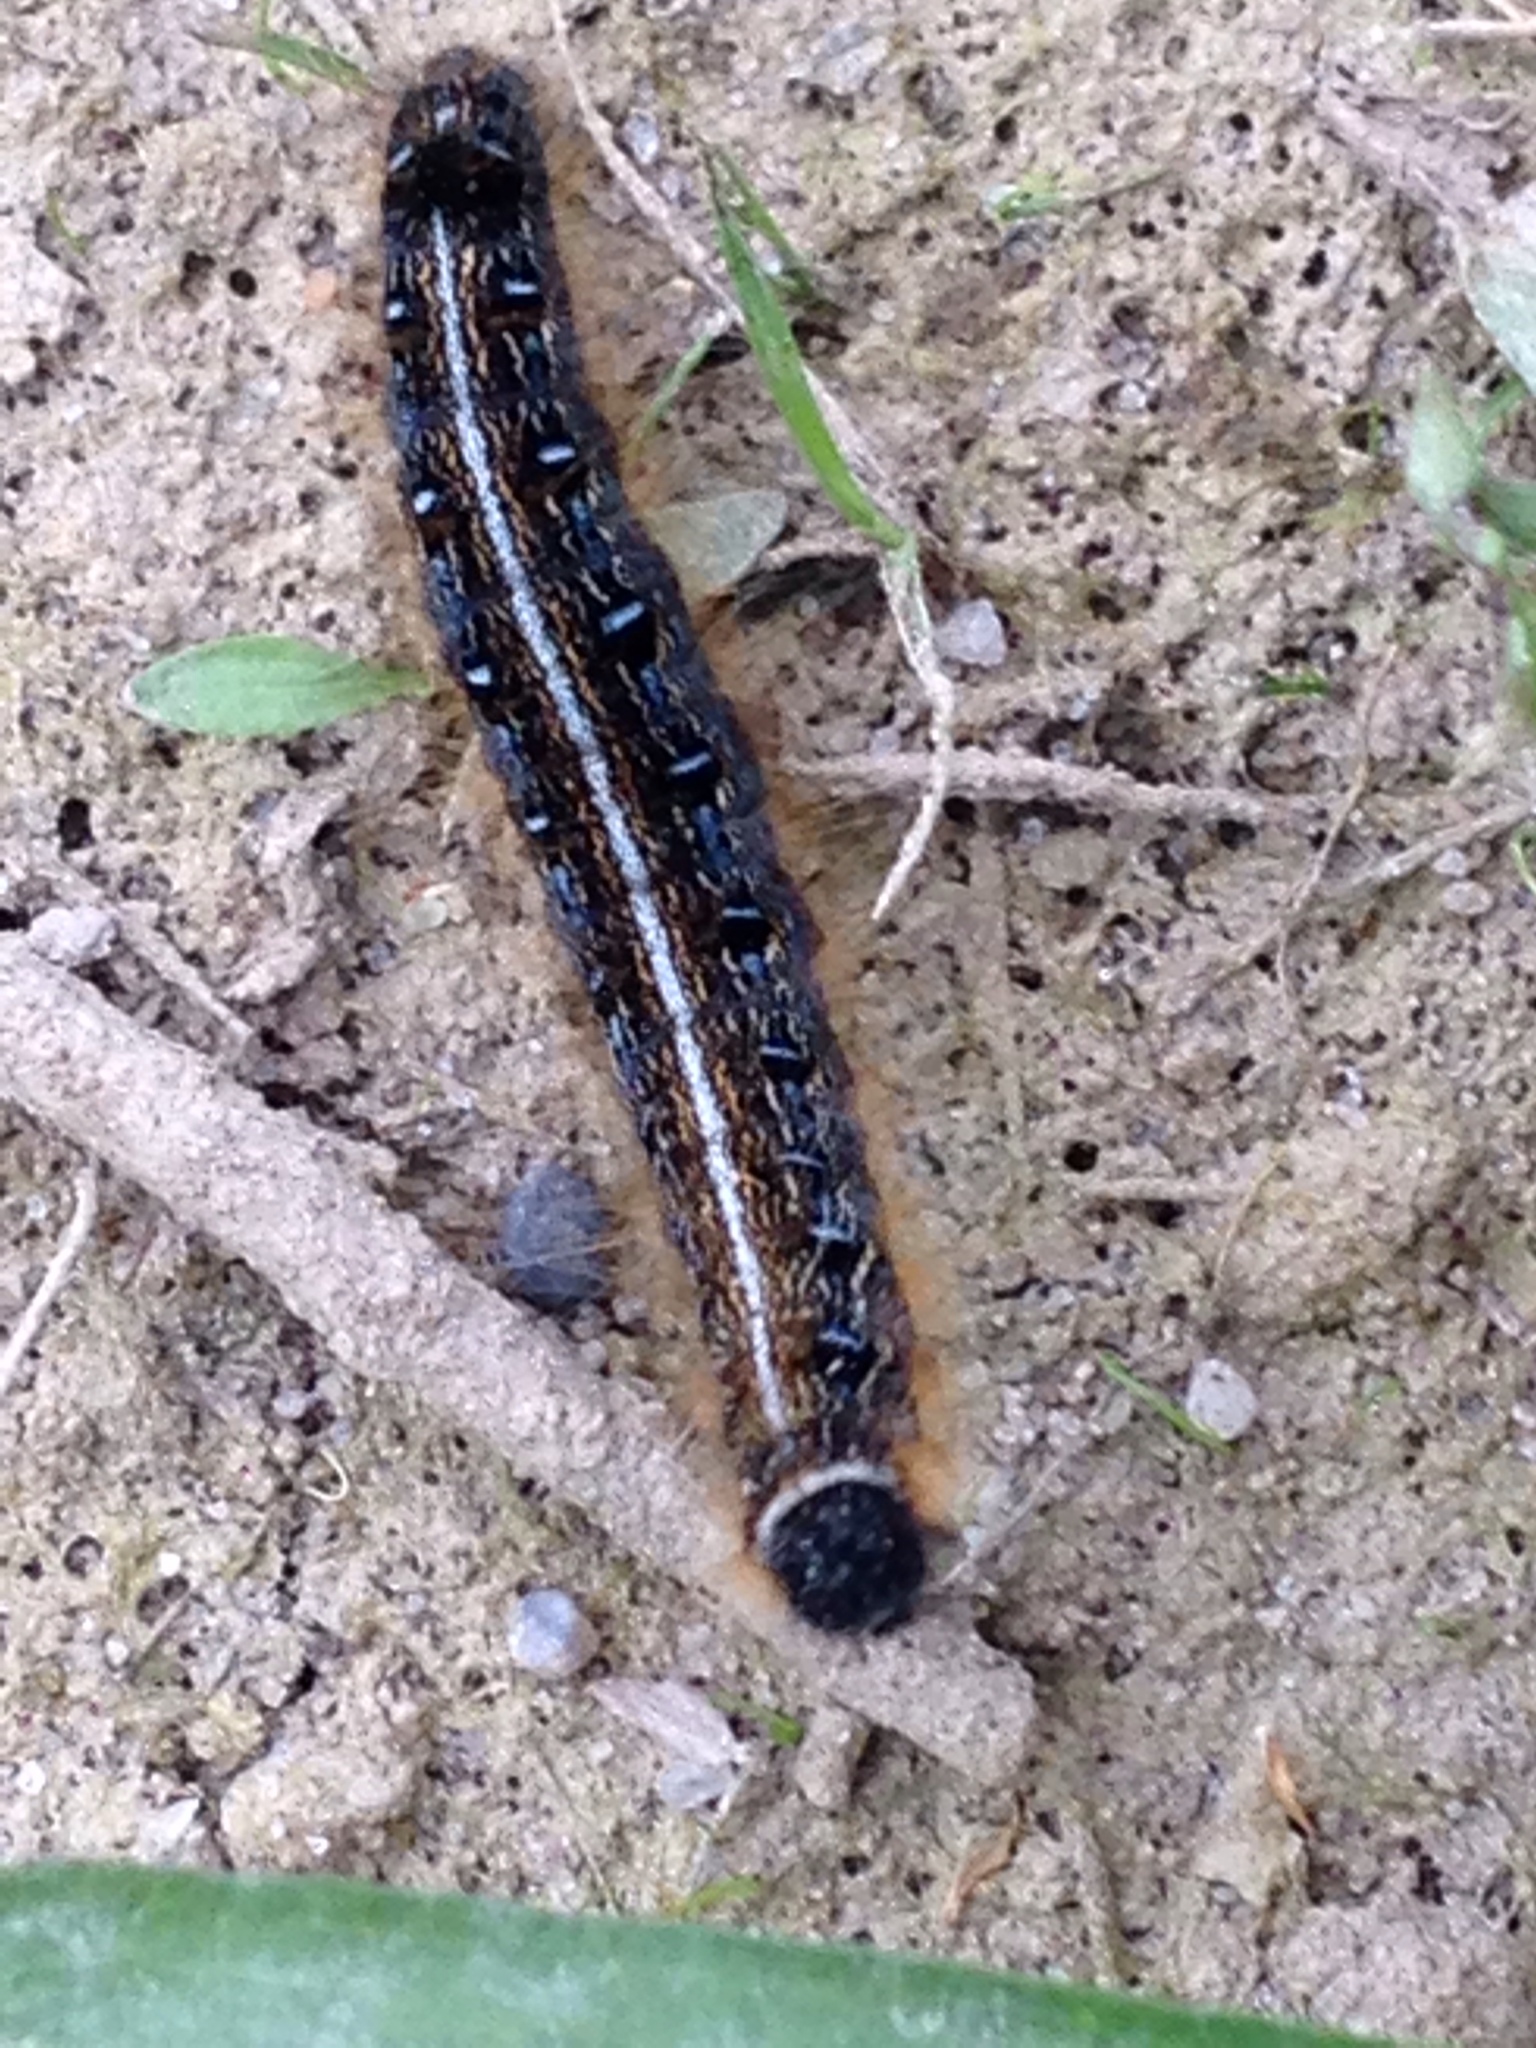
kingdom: Animalia
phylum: Arthropoda
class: Insecta
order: Lepidoptera
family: Lasiocampidae
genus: Malacosoma
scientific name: Malacosoma americana
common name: Eastern tent caterpillar moth
